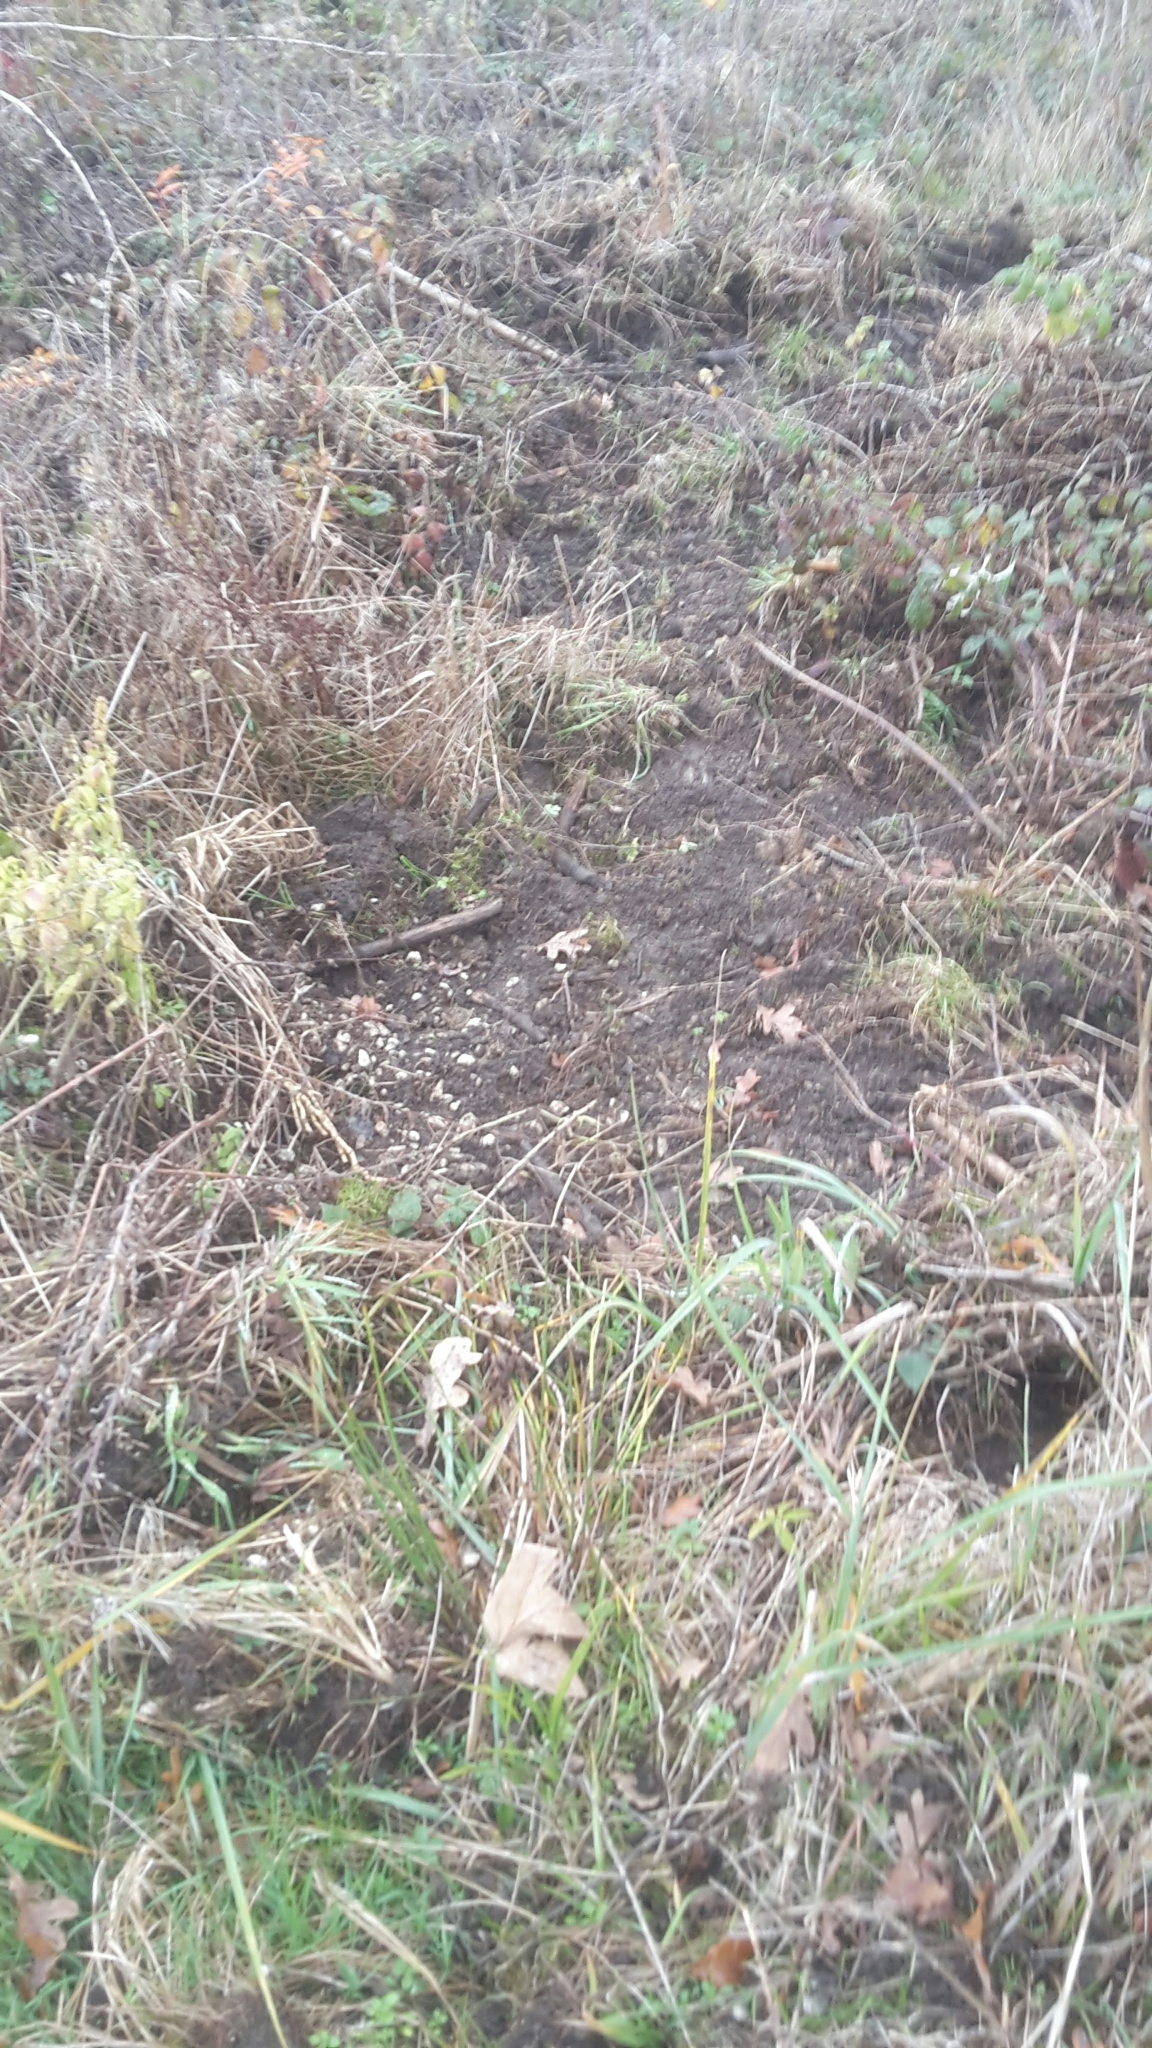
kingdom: Animalia
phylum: Chordata
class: Mammalia
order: Artiodactyla
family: Suidae
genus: Sus
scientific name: Sus scrofa
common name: Wild boar
